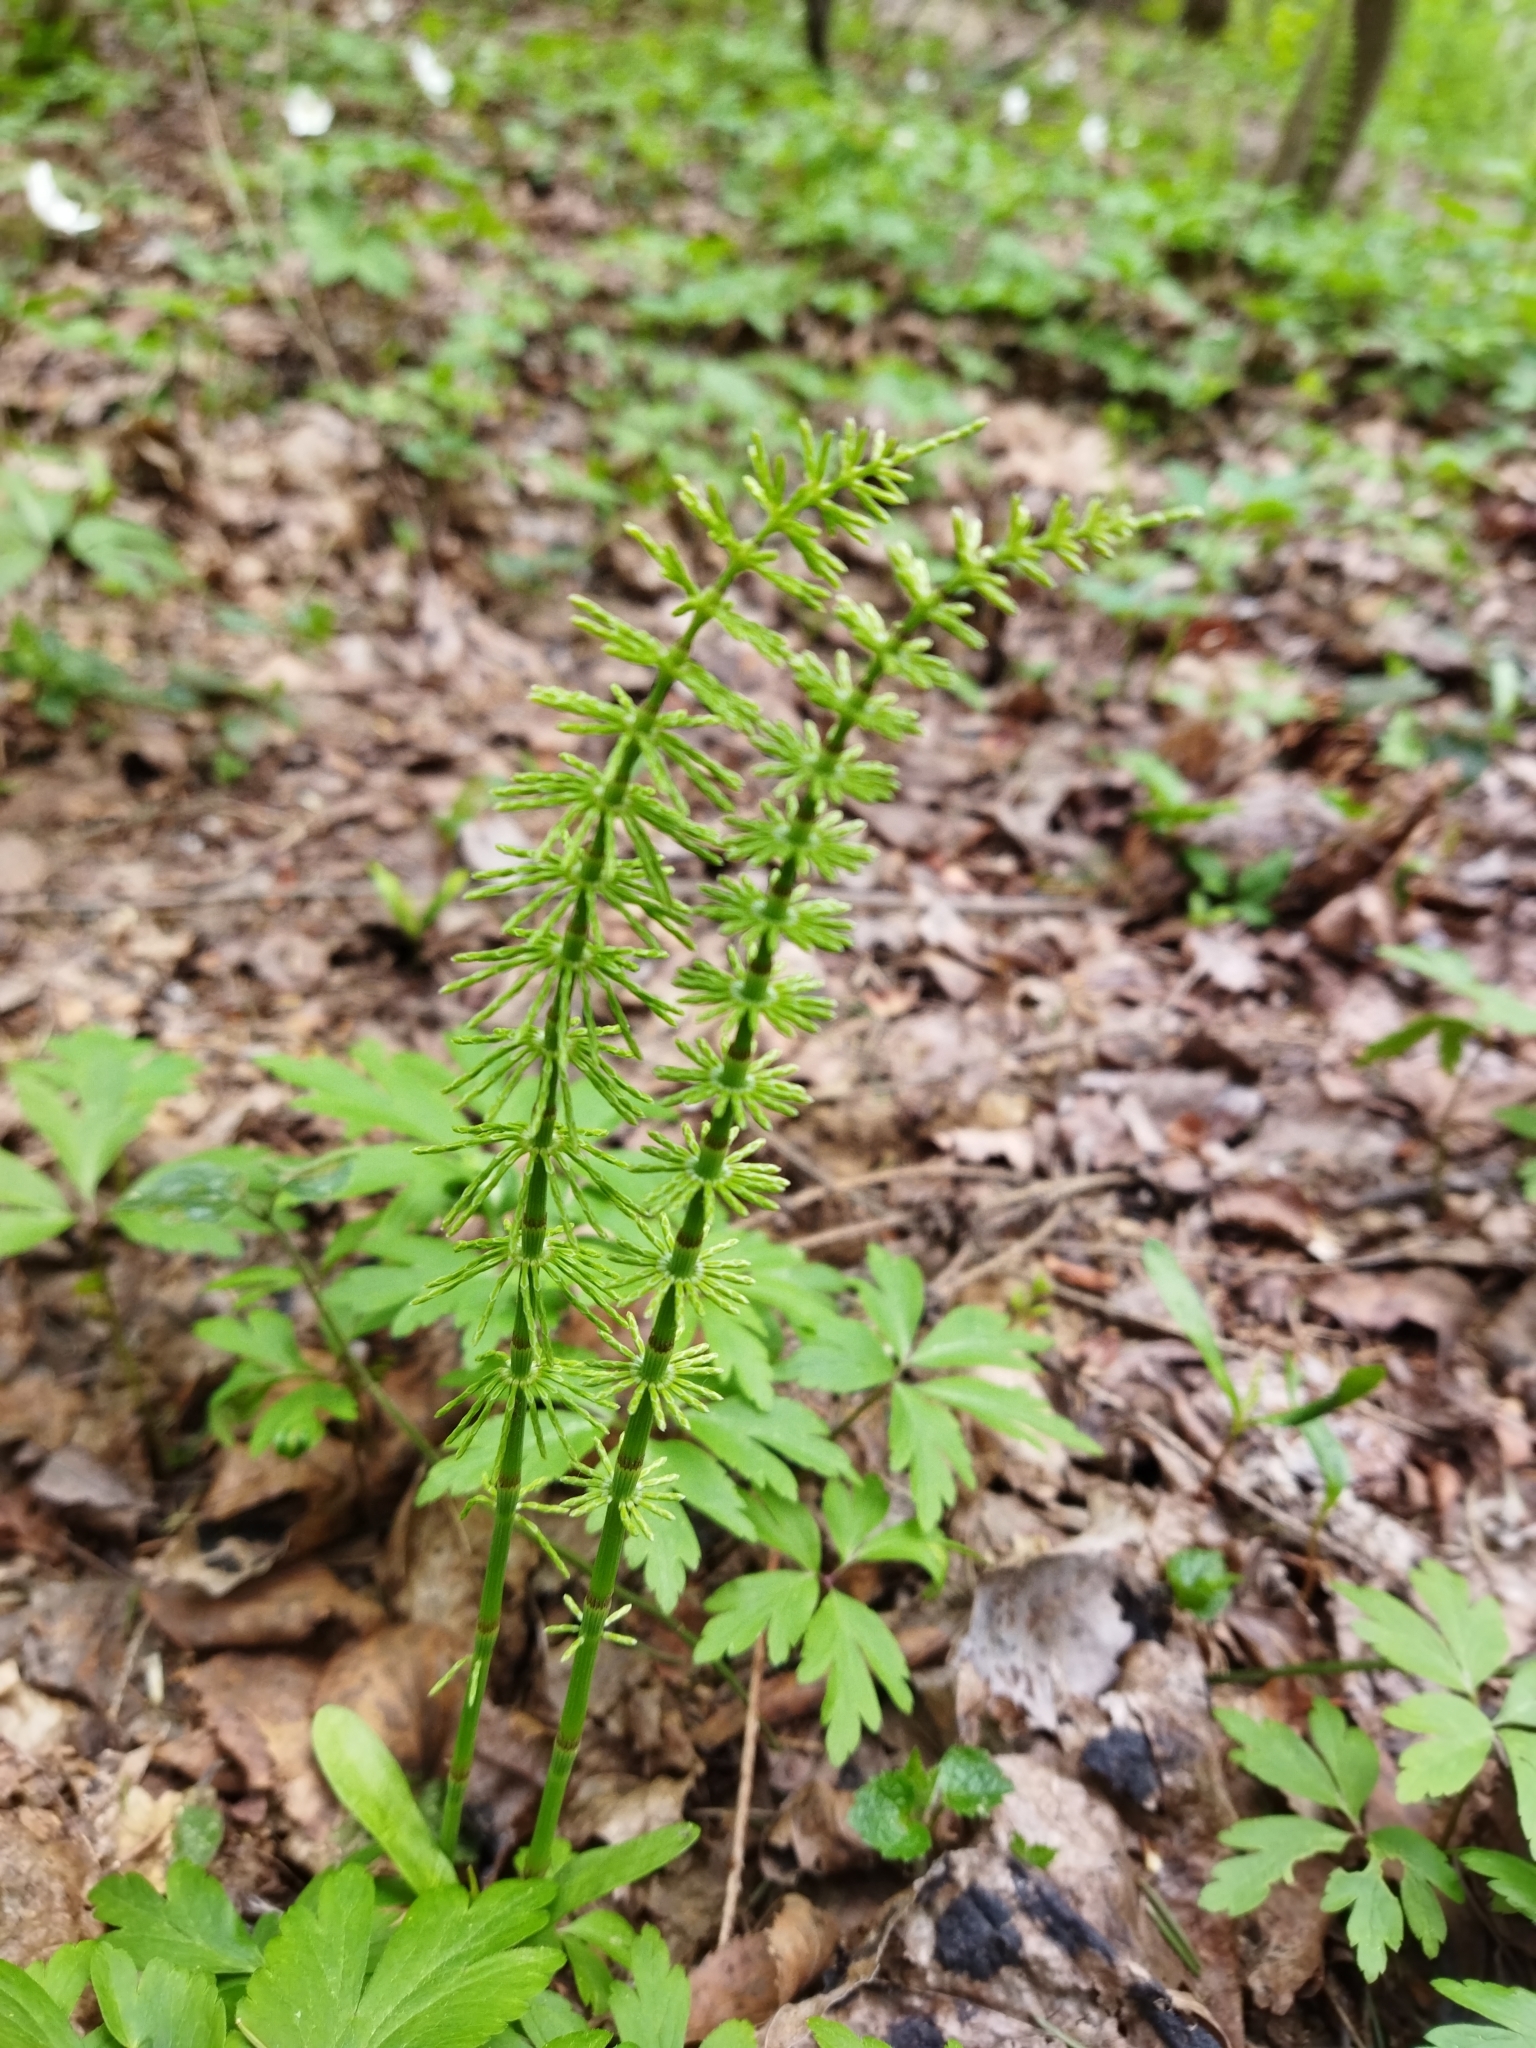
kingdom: Plantae
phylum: Tracheophyta
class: Polypodiopsida
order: Equisetales
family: Equisetaceae
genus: Equisetum
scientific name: Equisetum pratense
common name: Meadow horsetail
